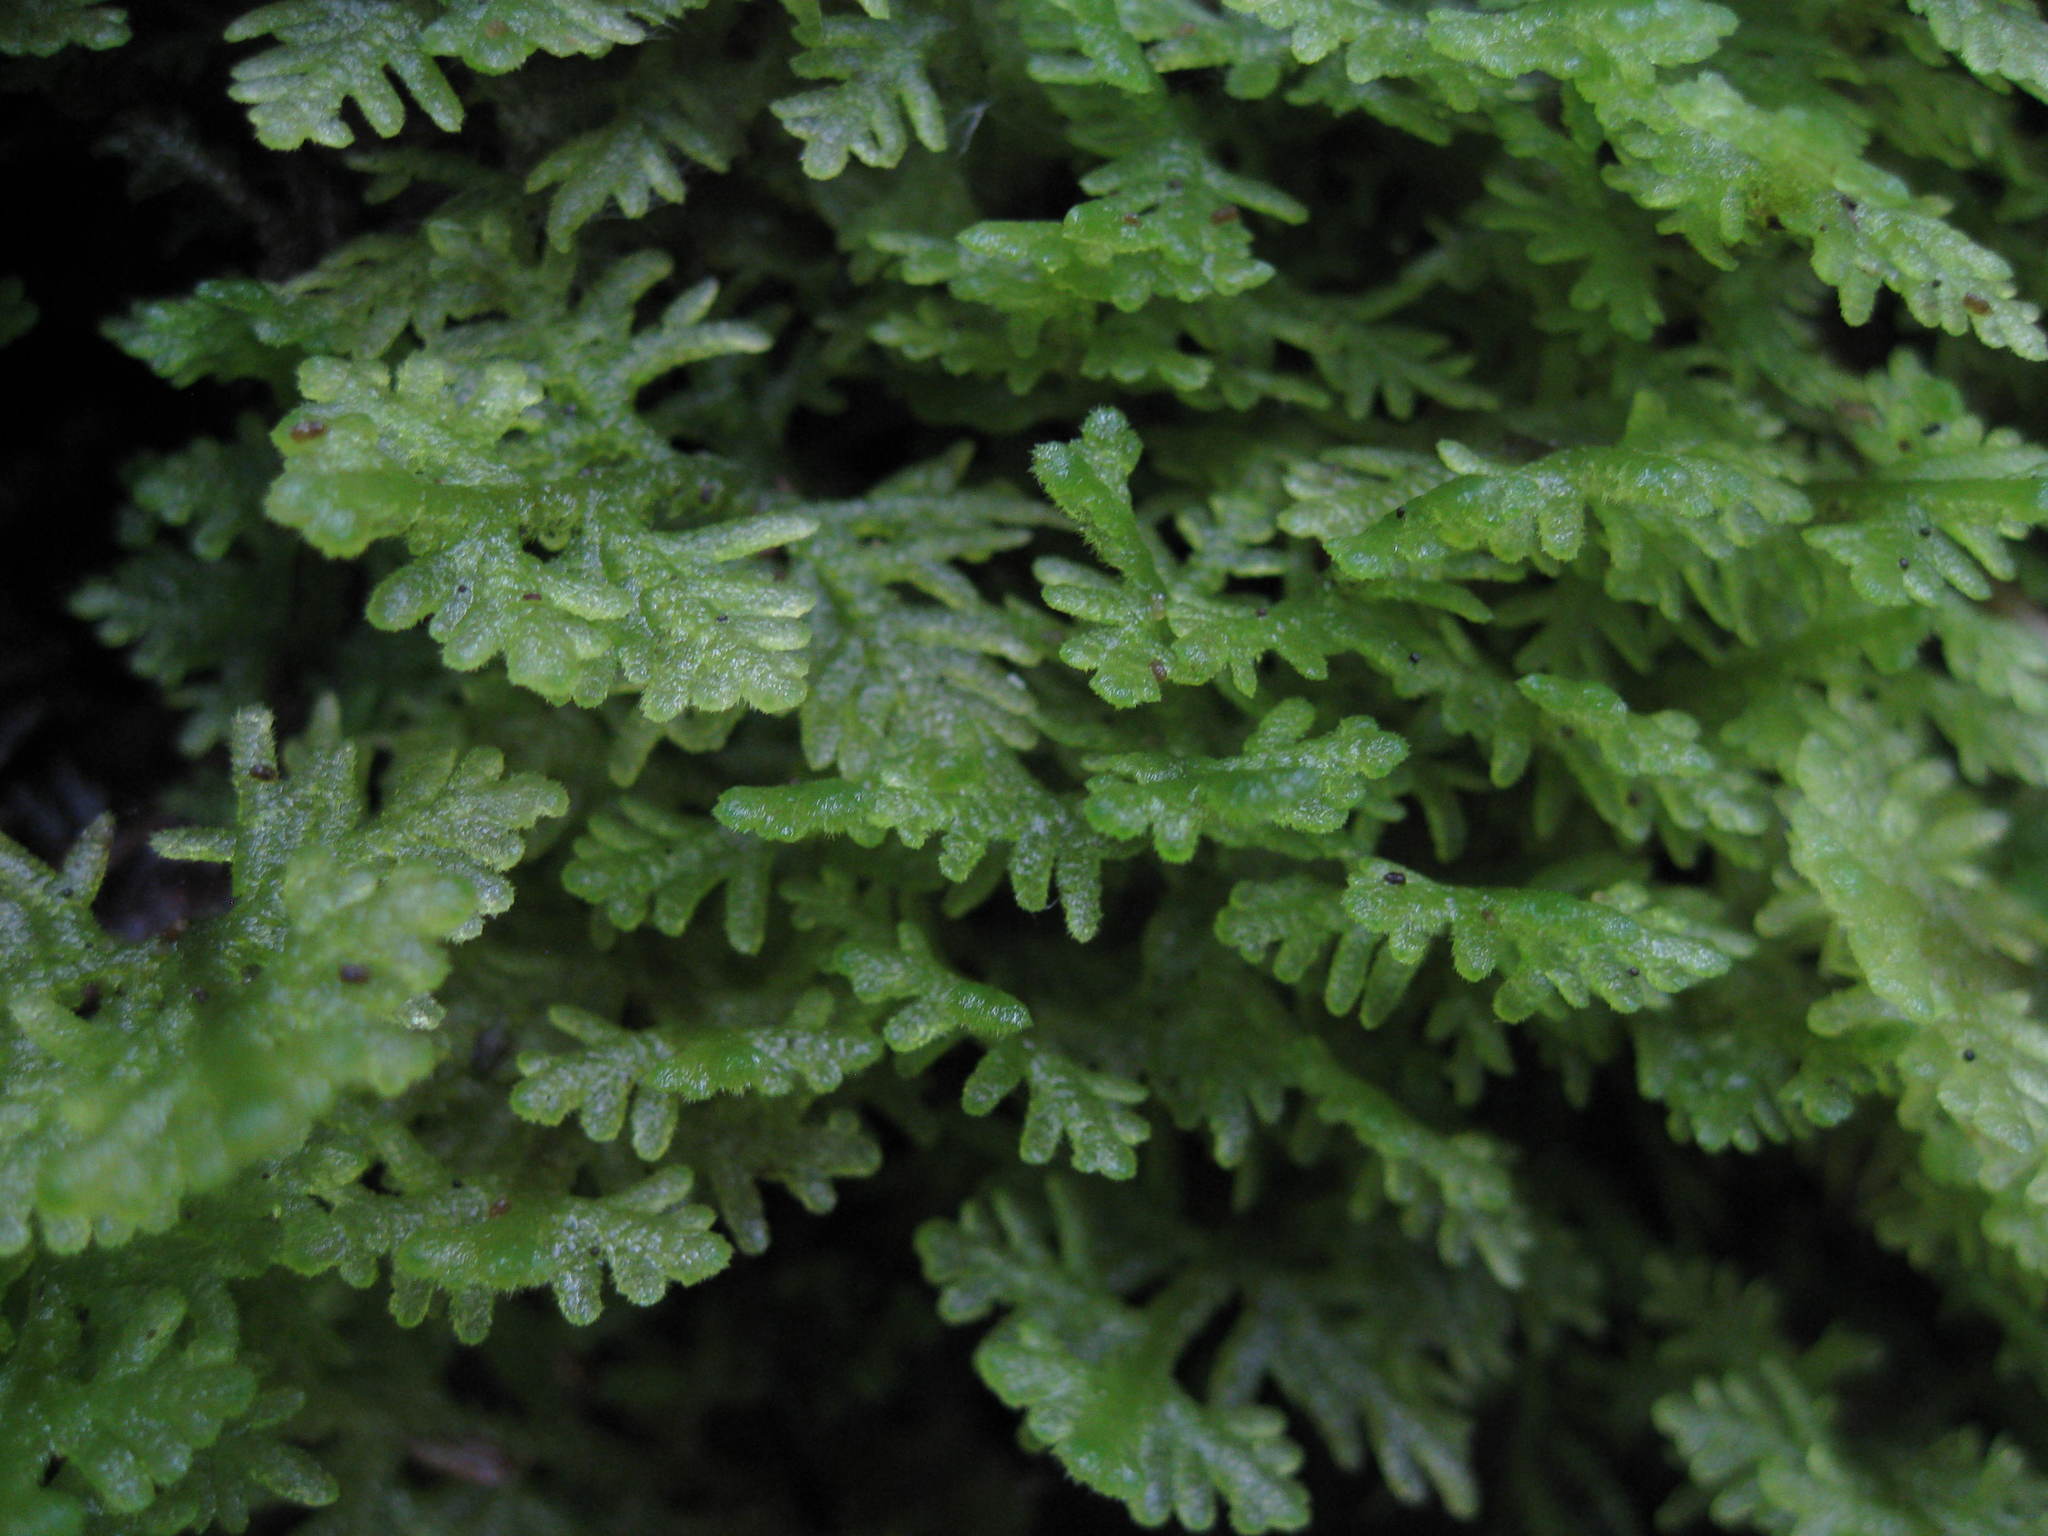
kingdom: Plantae
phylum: Marchantiophyta
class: Jungermanniopsida
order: Jungermanniales
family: Trichocoleaceae
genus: Trichocolea
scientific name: Trichocolea tomentella
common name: Woolly liverwort
